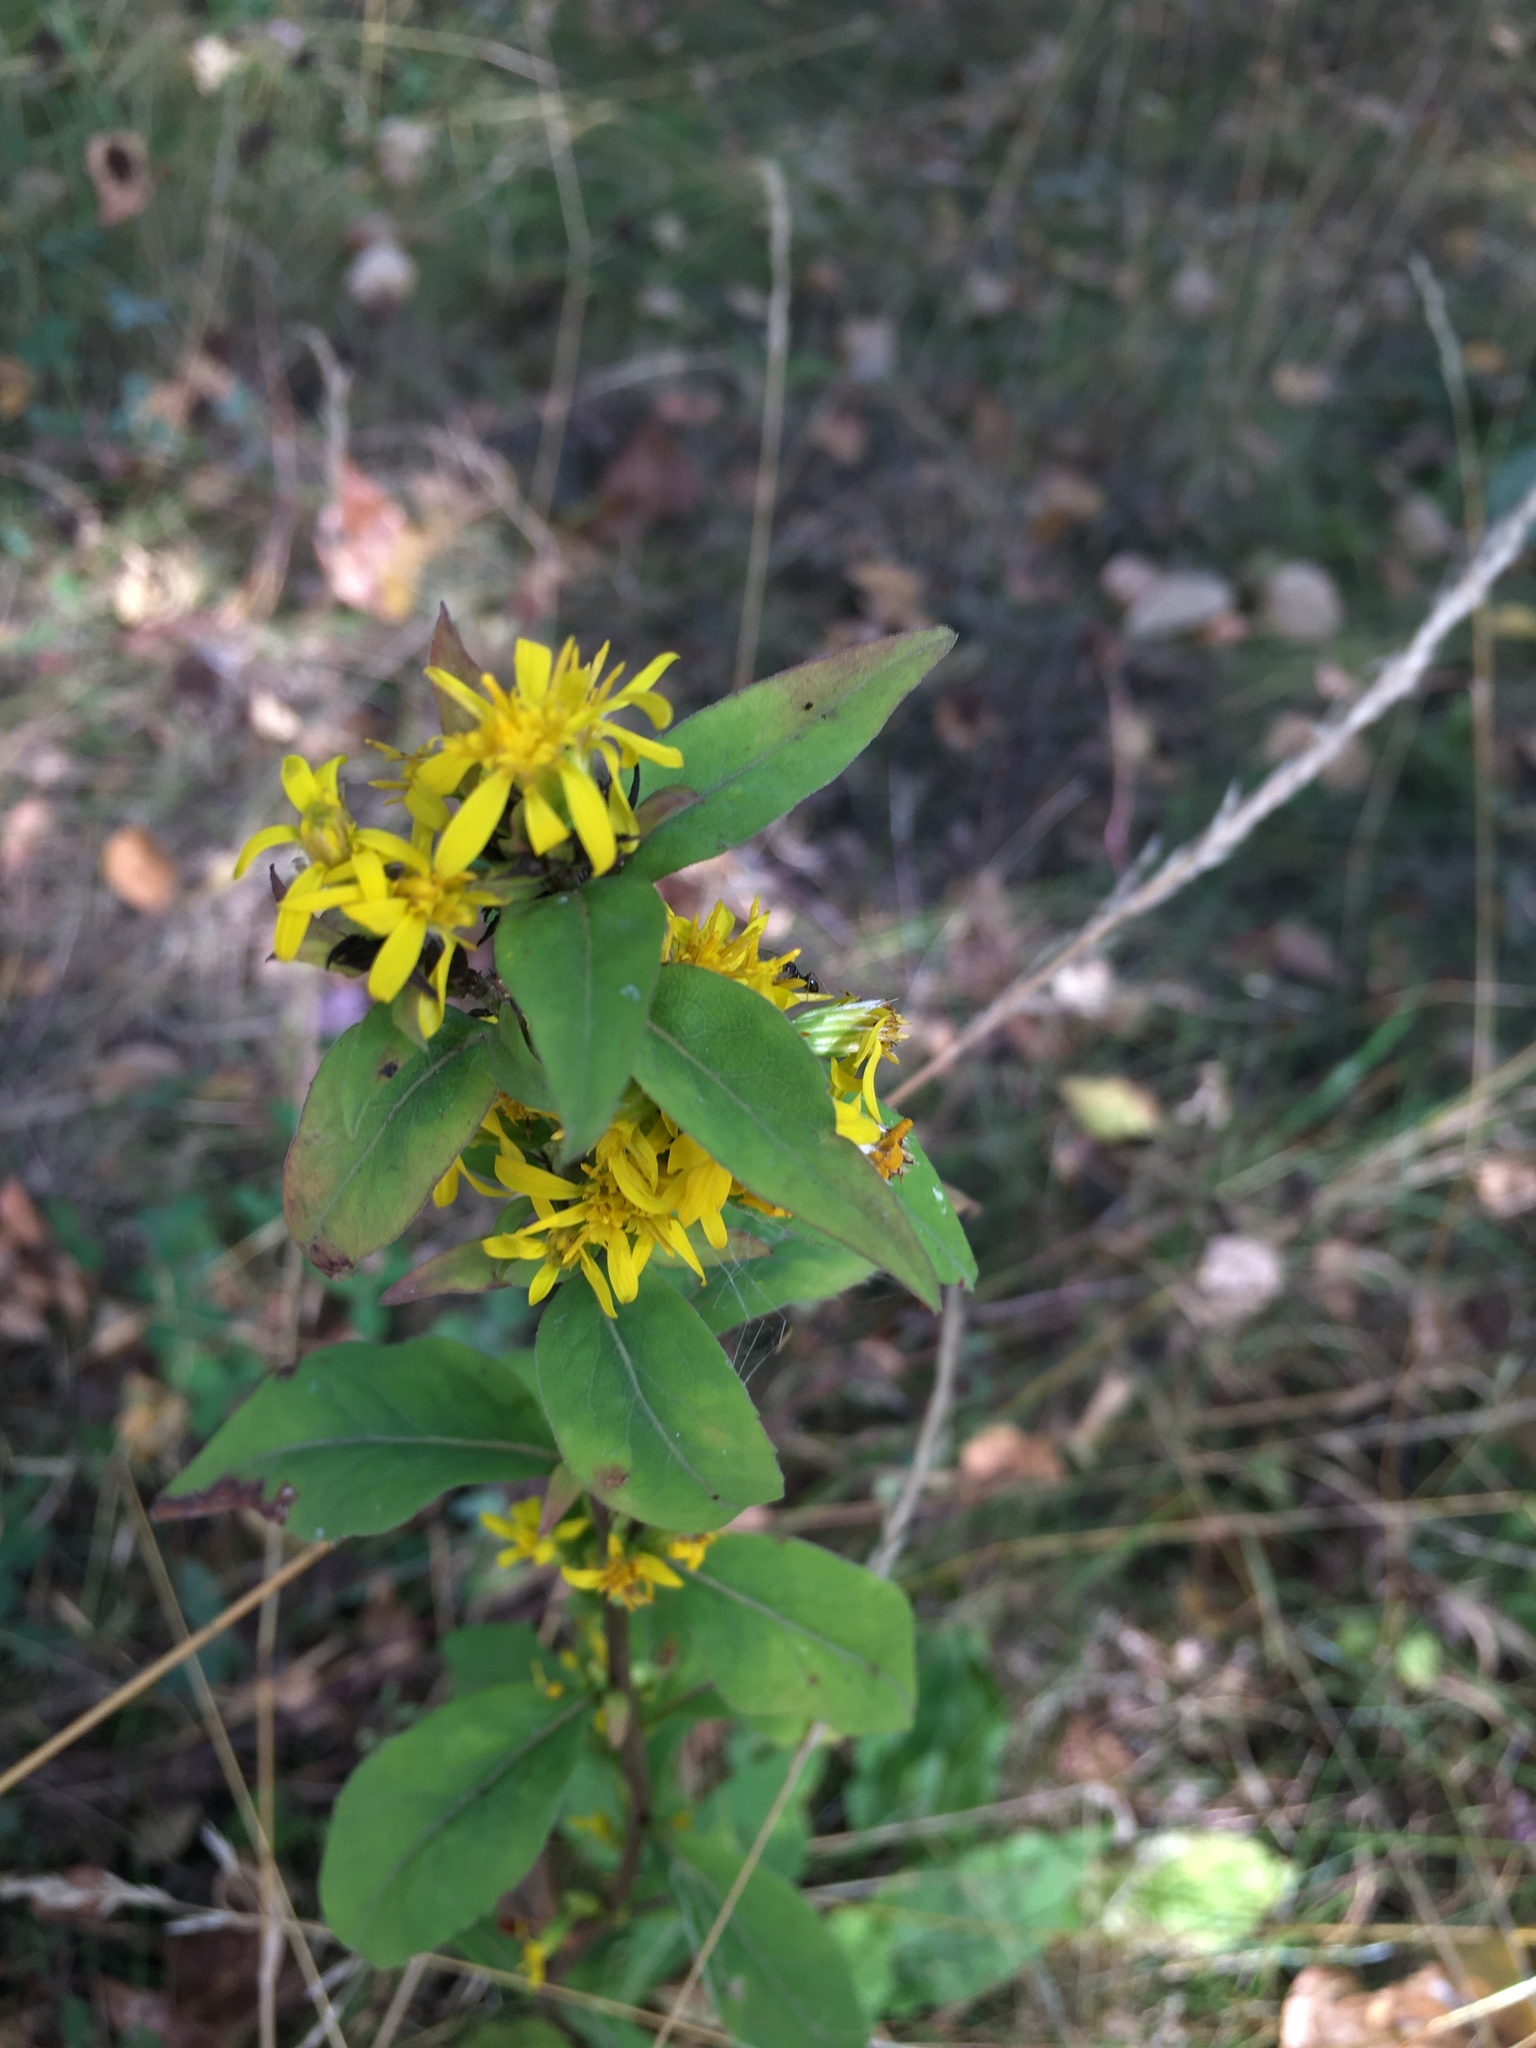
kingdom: Plantae
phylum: Tracheophyta
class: Magnoliopsida
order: Asterales
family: Asteraceae
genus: Solidago
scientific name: Solidago virgaurea
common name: Goldenrod
